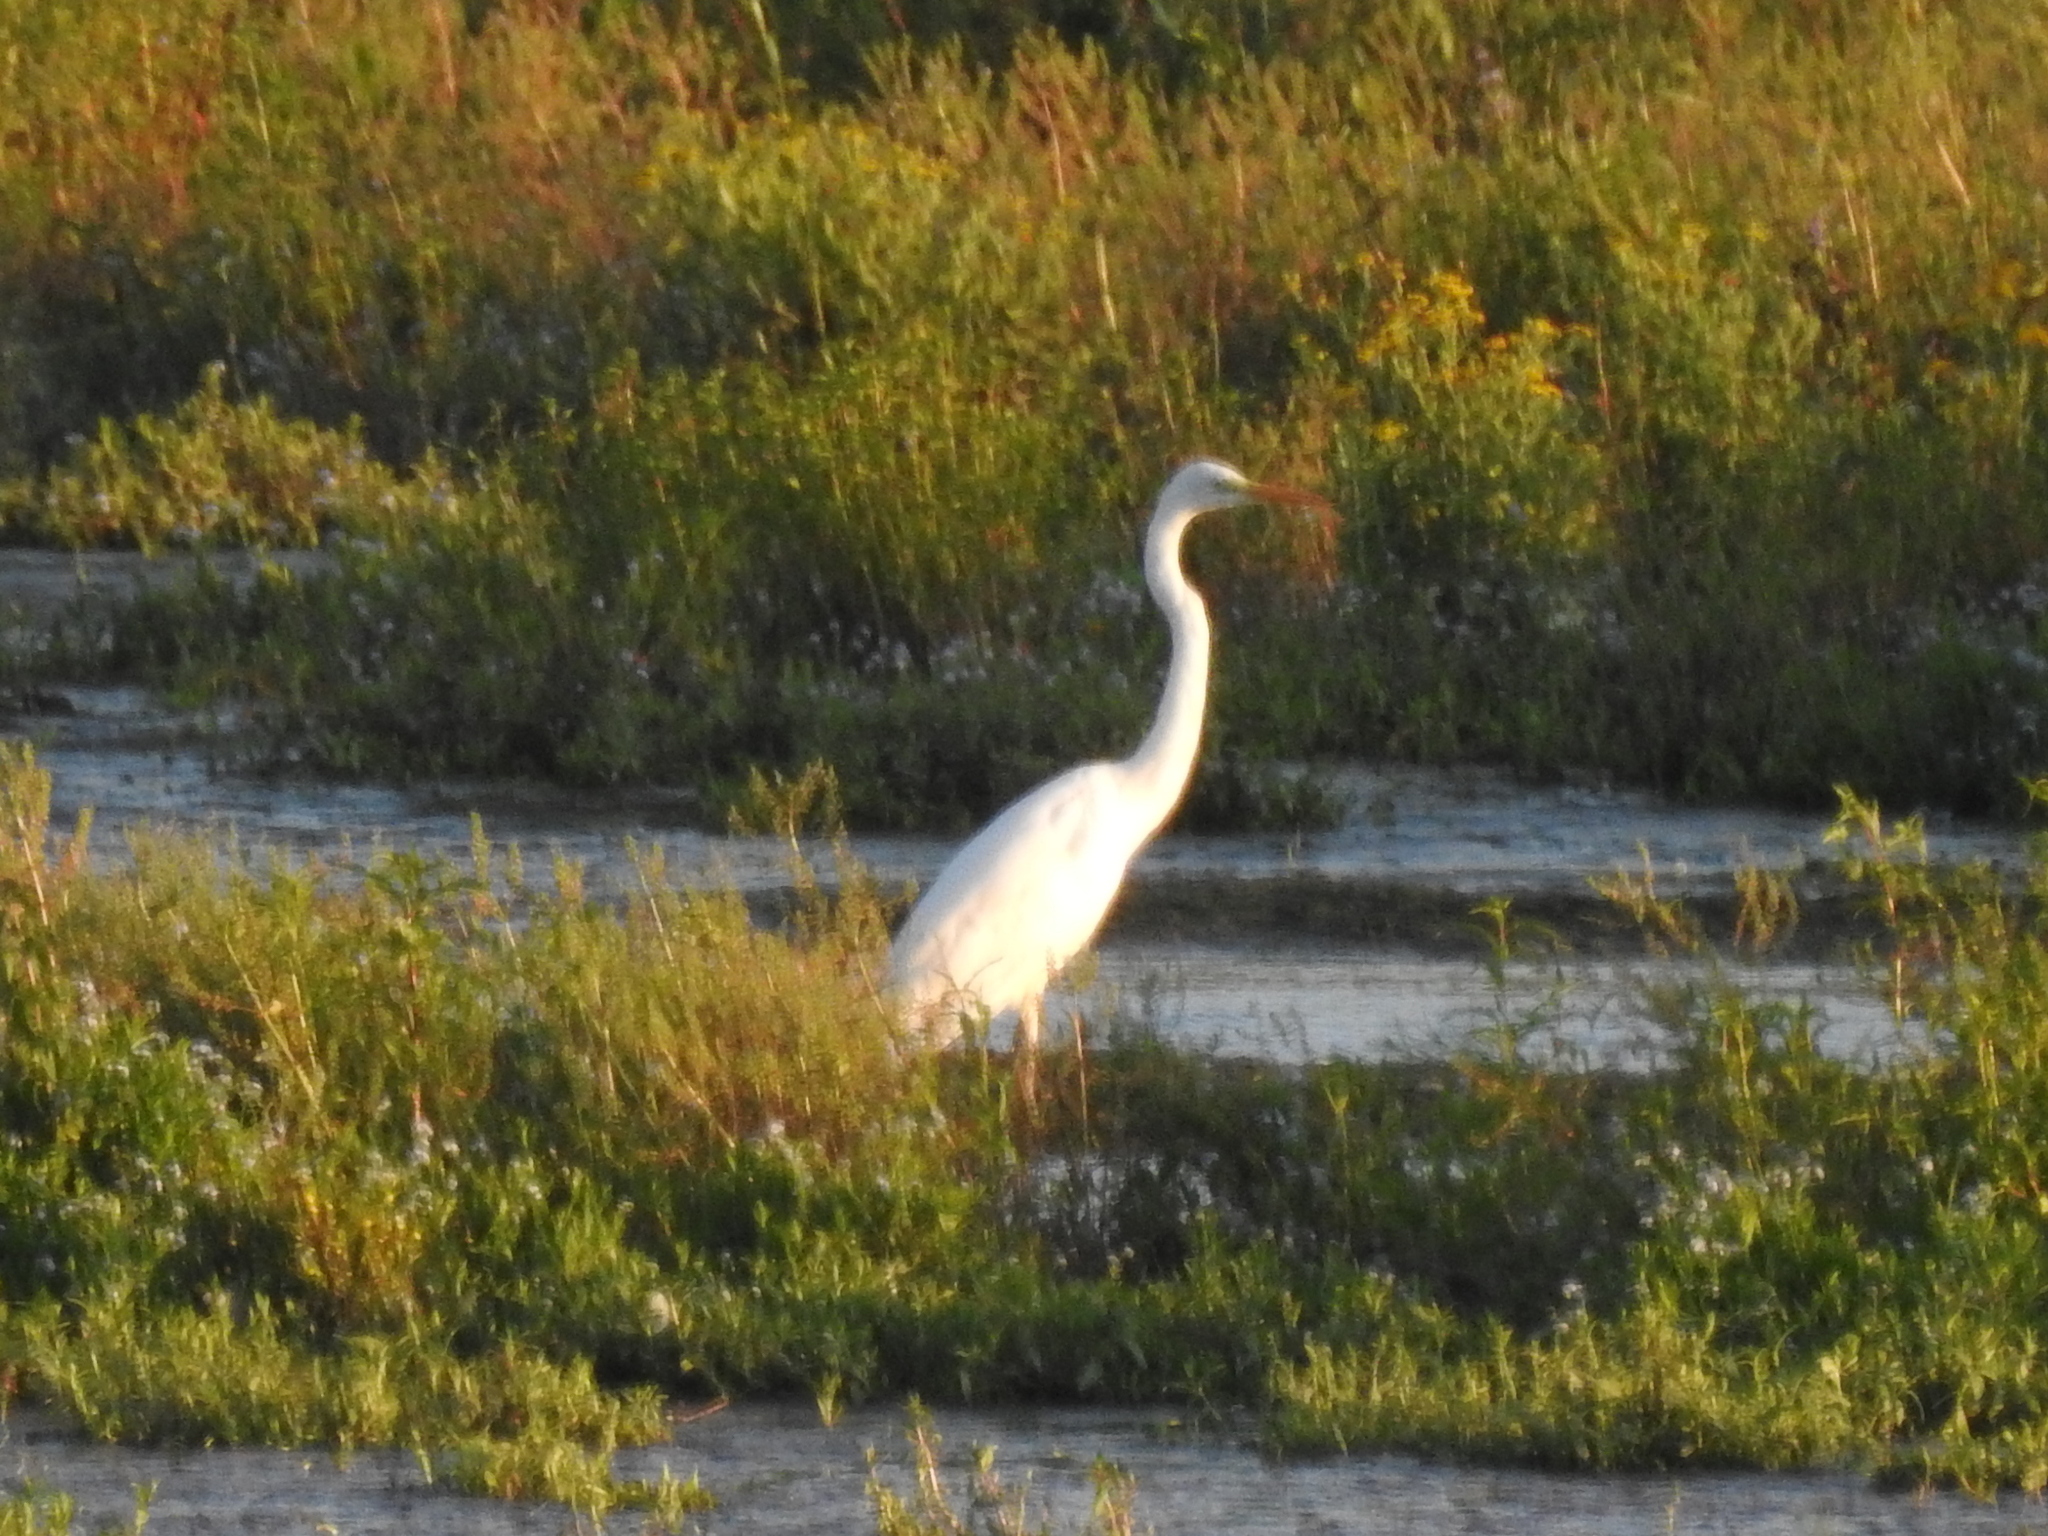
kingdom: Animalia
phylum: Chordata
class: Aves
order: Pelecaniformes
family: Ardeidae
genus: Ardea
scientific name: Ardea alba
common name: Great egret
